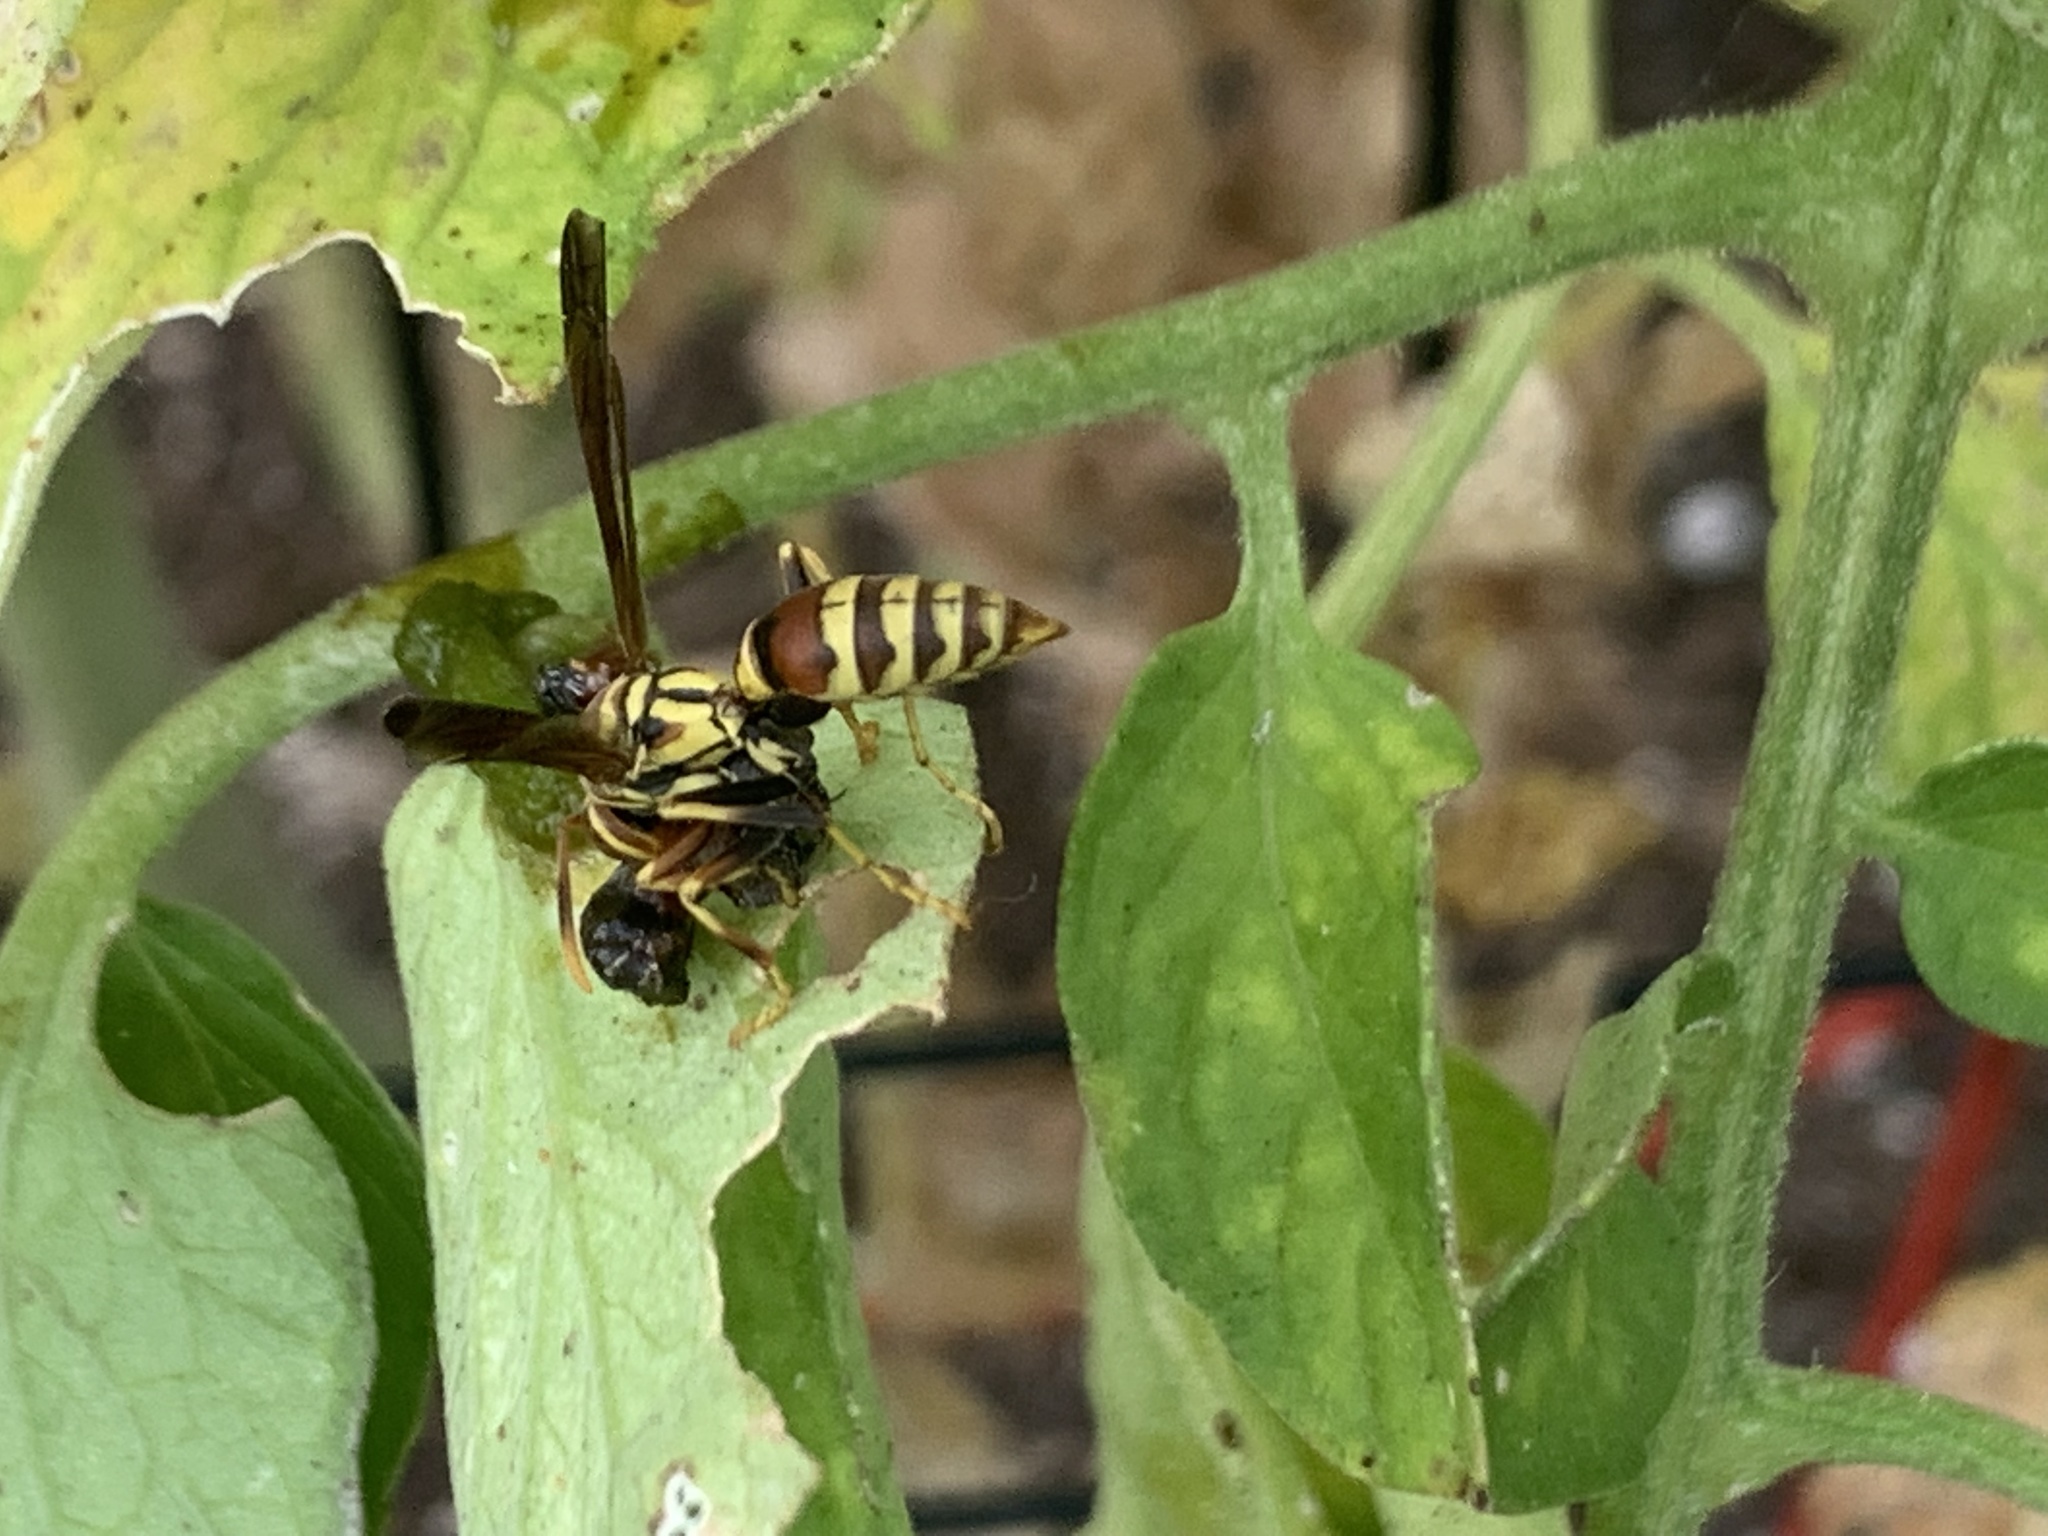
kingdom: Animalia
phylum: Arthropoda
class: Insecta
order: Hymenoptera
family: Eumenidae
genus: Polistes
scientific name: Polistes exclamans
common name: Paper wasp
